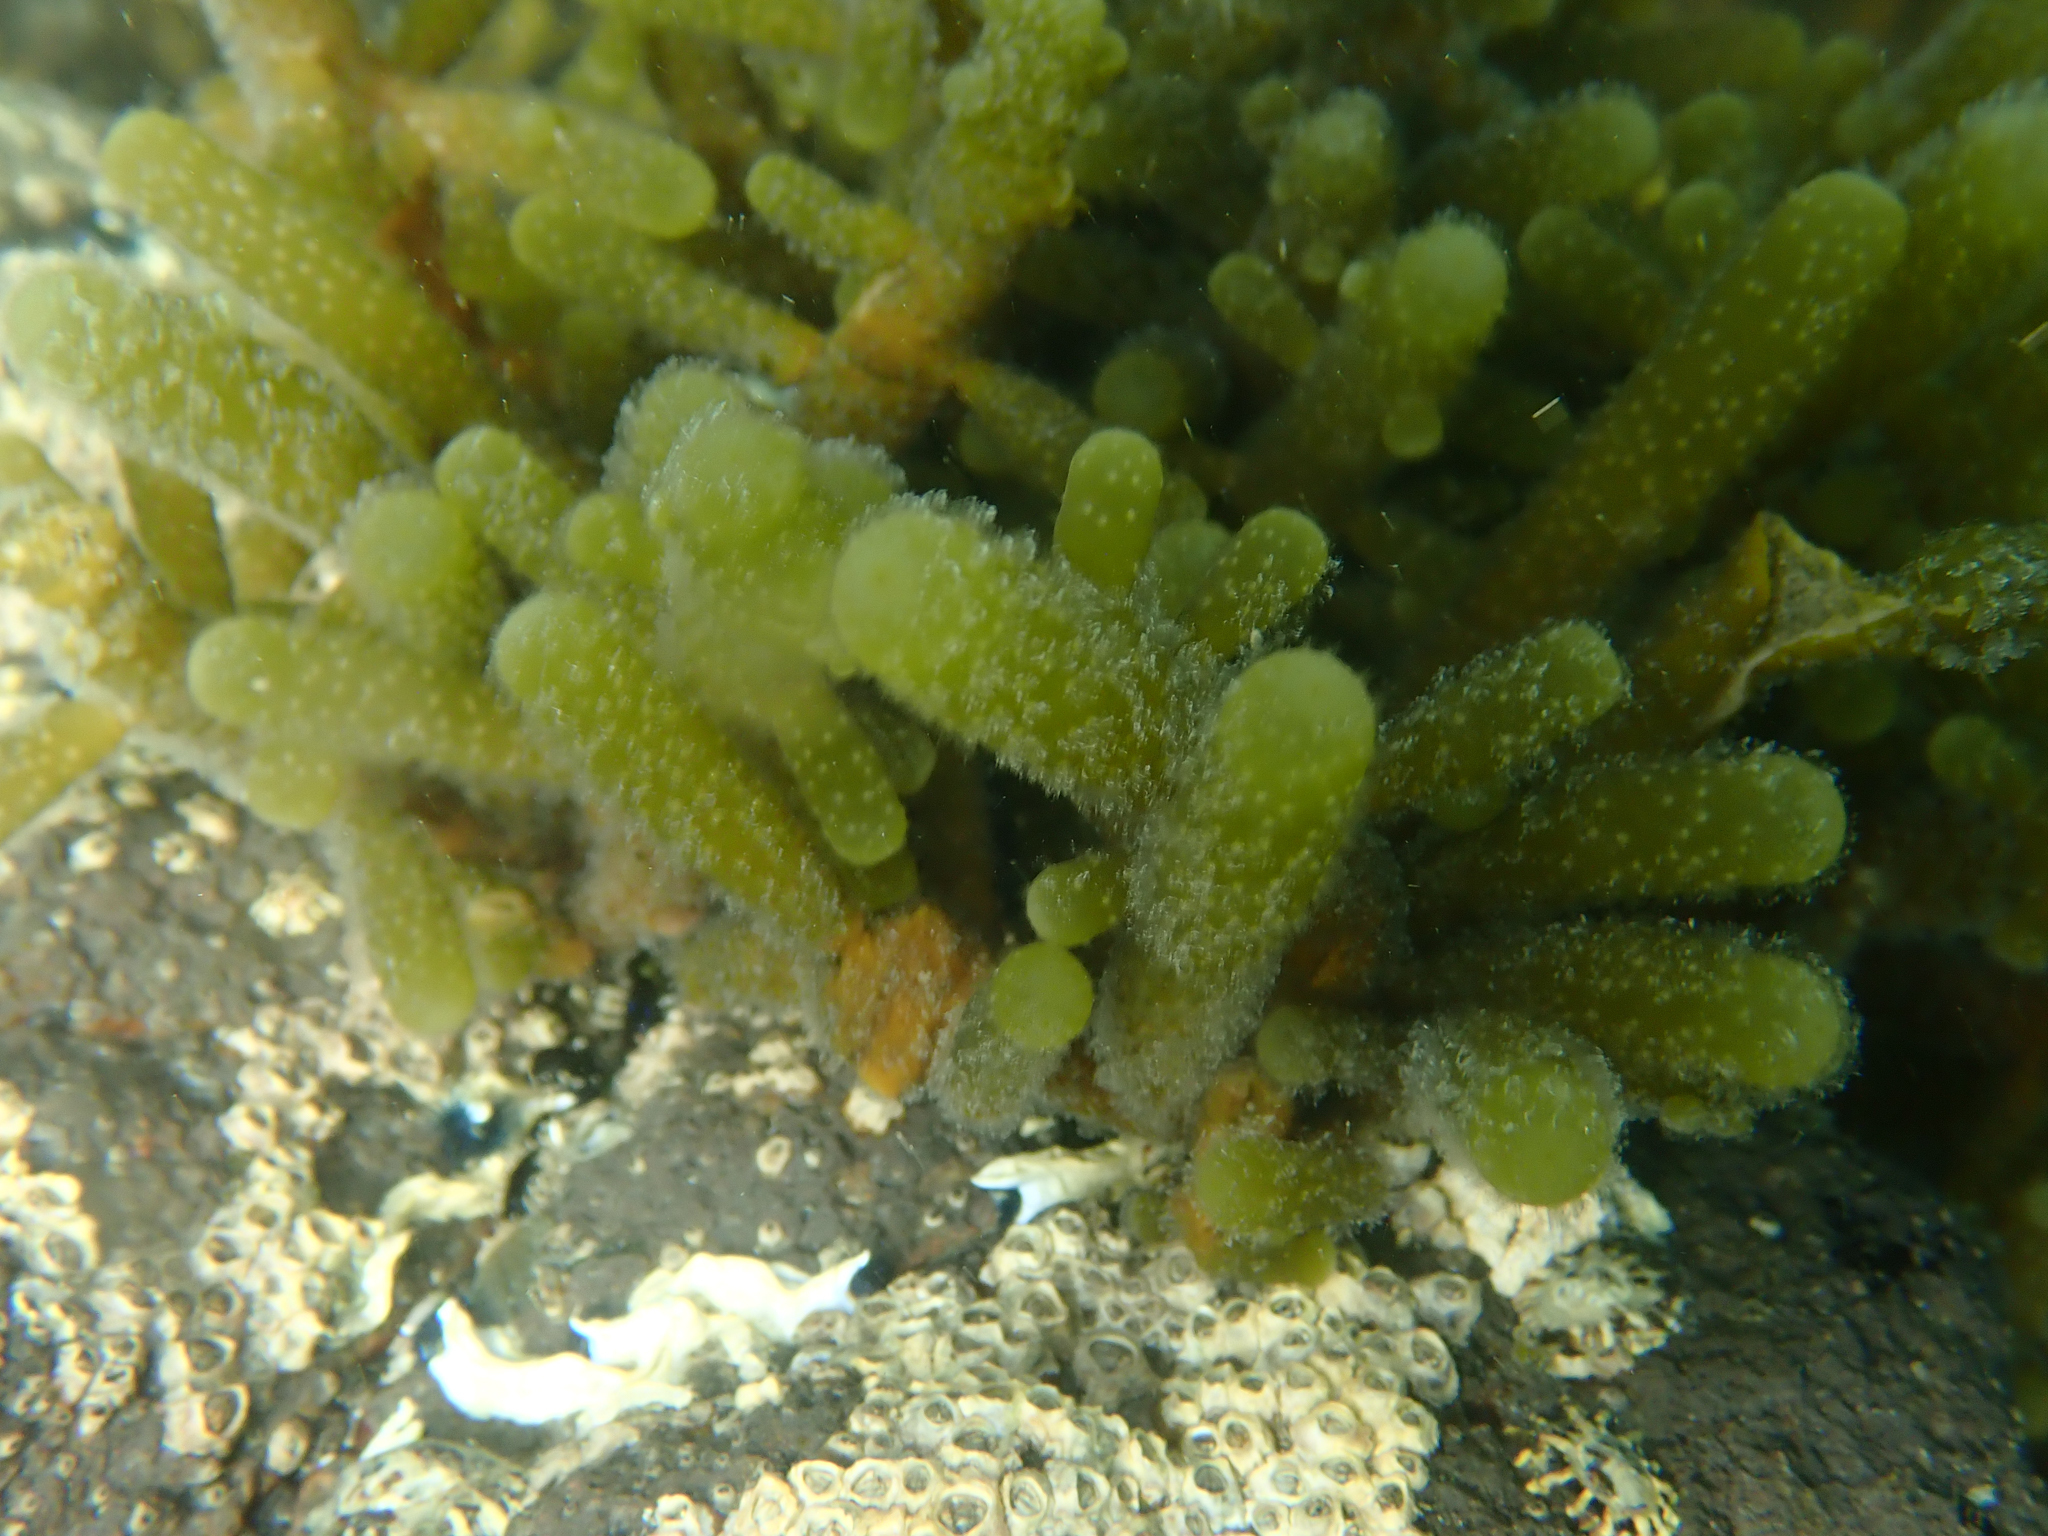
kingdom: Chromista
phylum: Ochrophyta
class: Phaeophyceae
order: Scytothamnales
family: Splachnidiaceae
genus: Splachnidium
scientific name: Splachnidium rugosum
